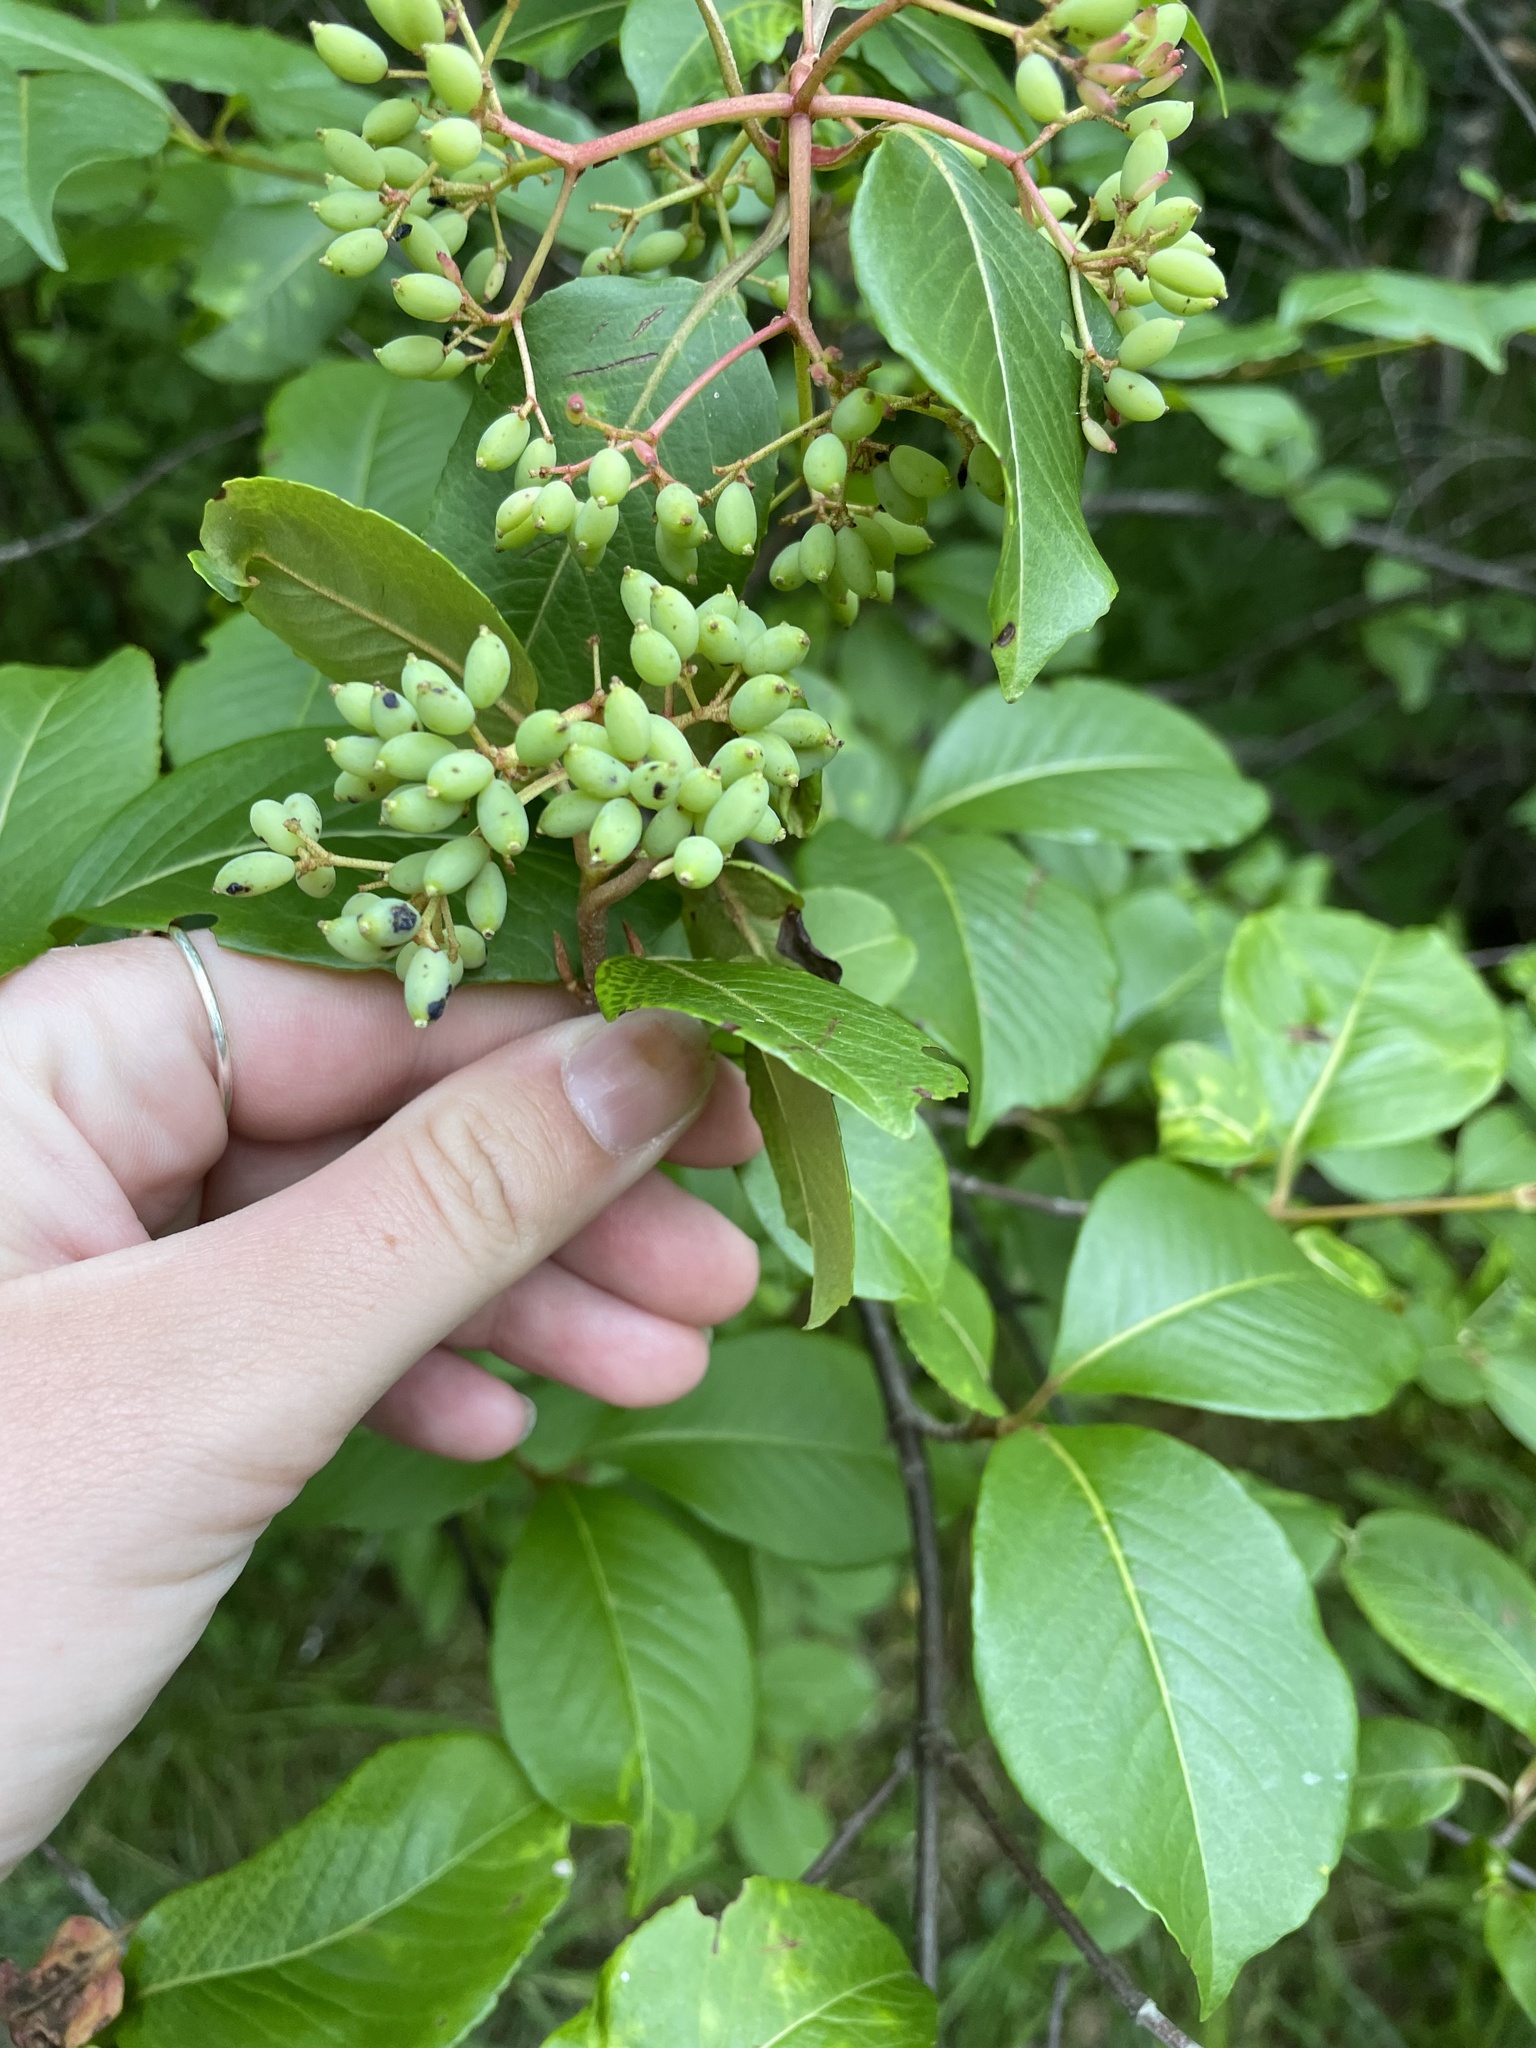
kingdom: Plantae
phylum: Tracheophyta
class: Magnoliopsida
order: Dipsacales
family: Viburnaceae
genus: Viburnum
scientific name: Viburnum cassinoides
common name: Swamp haw
